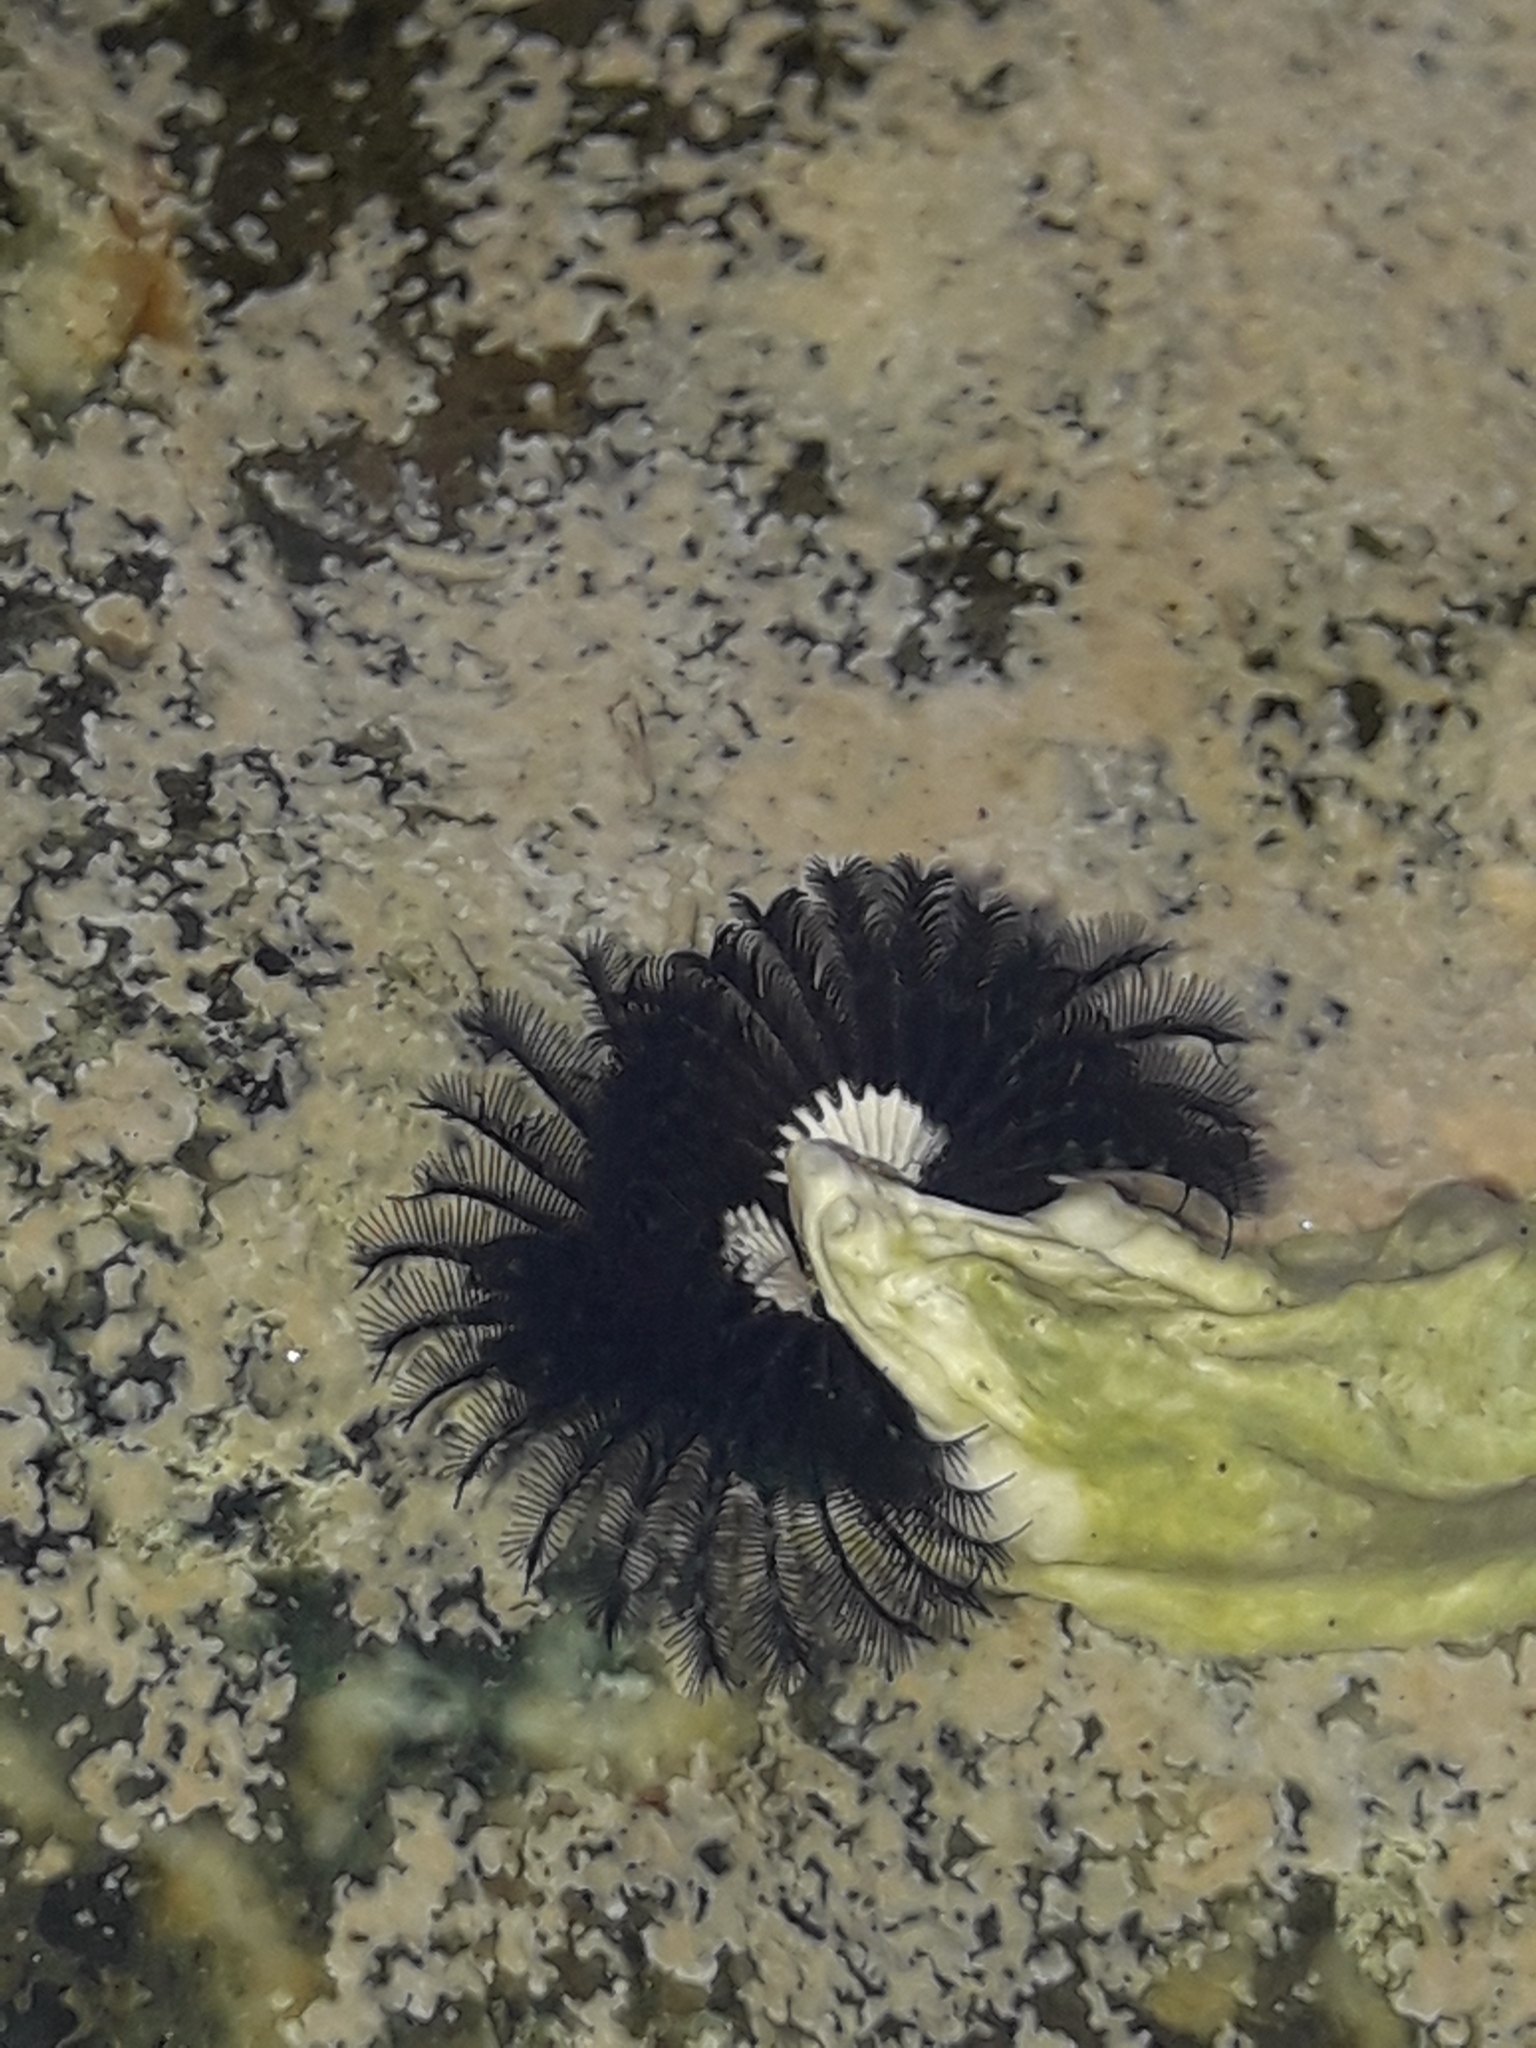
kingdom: Animalia
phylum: Annelida
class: Polychaeta
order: Sabellida
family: Serpulidae
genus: Spirobranchus
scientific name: Spirobranchus cariniferus
